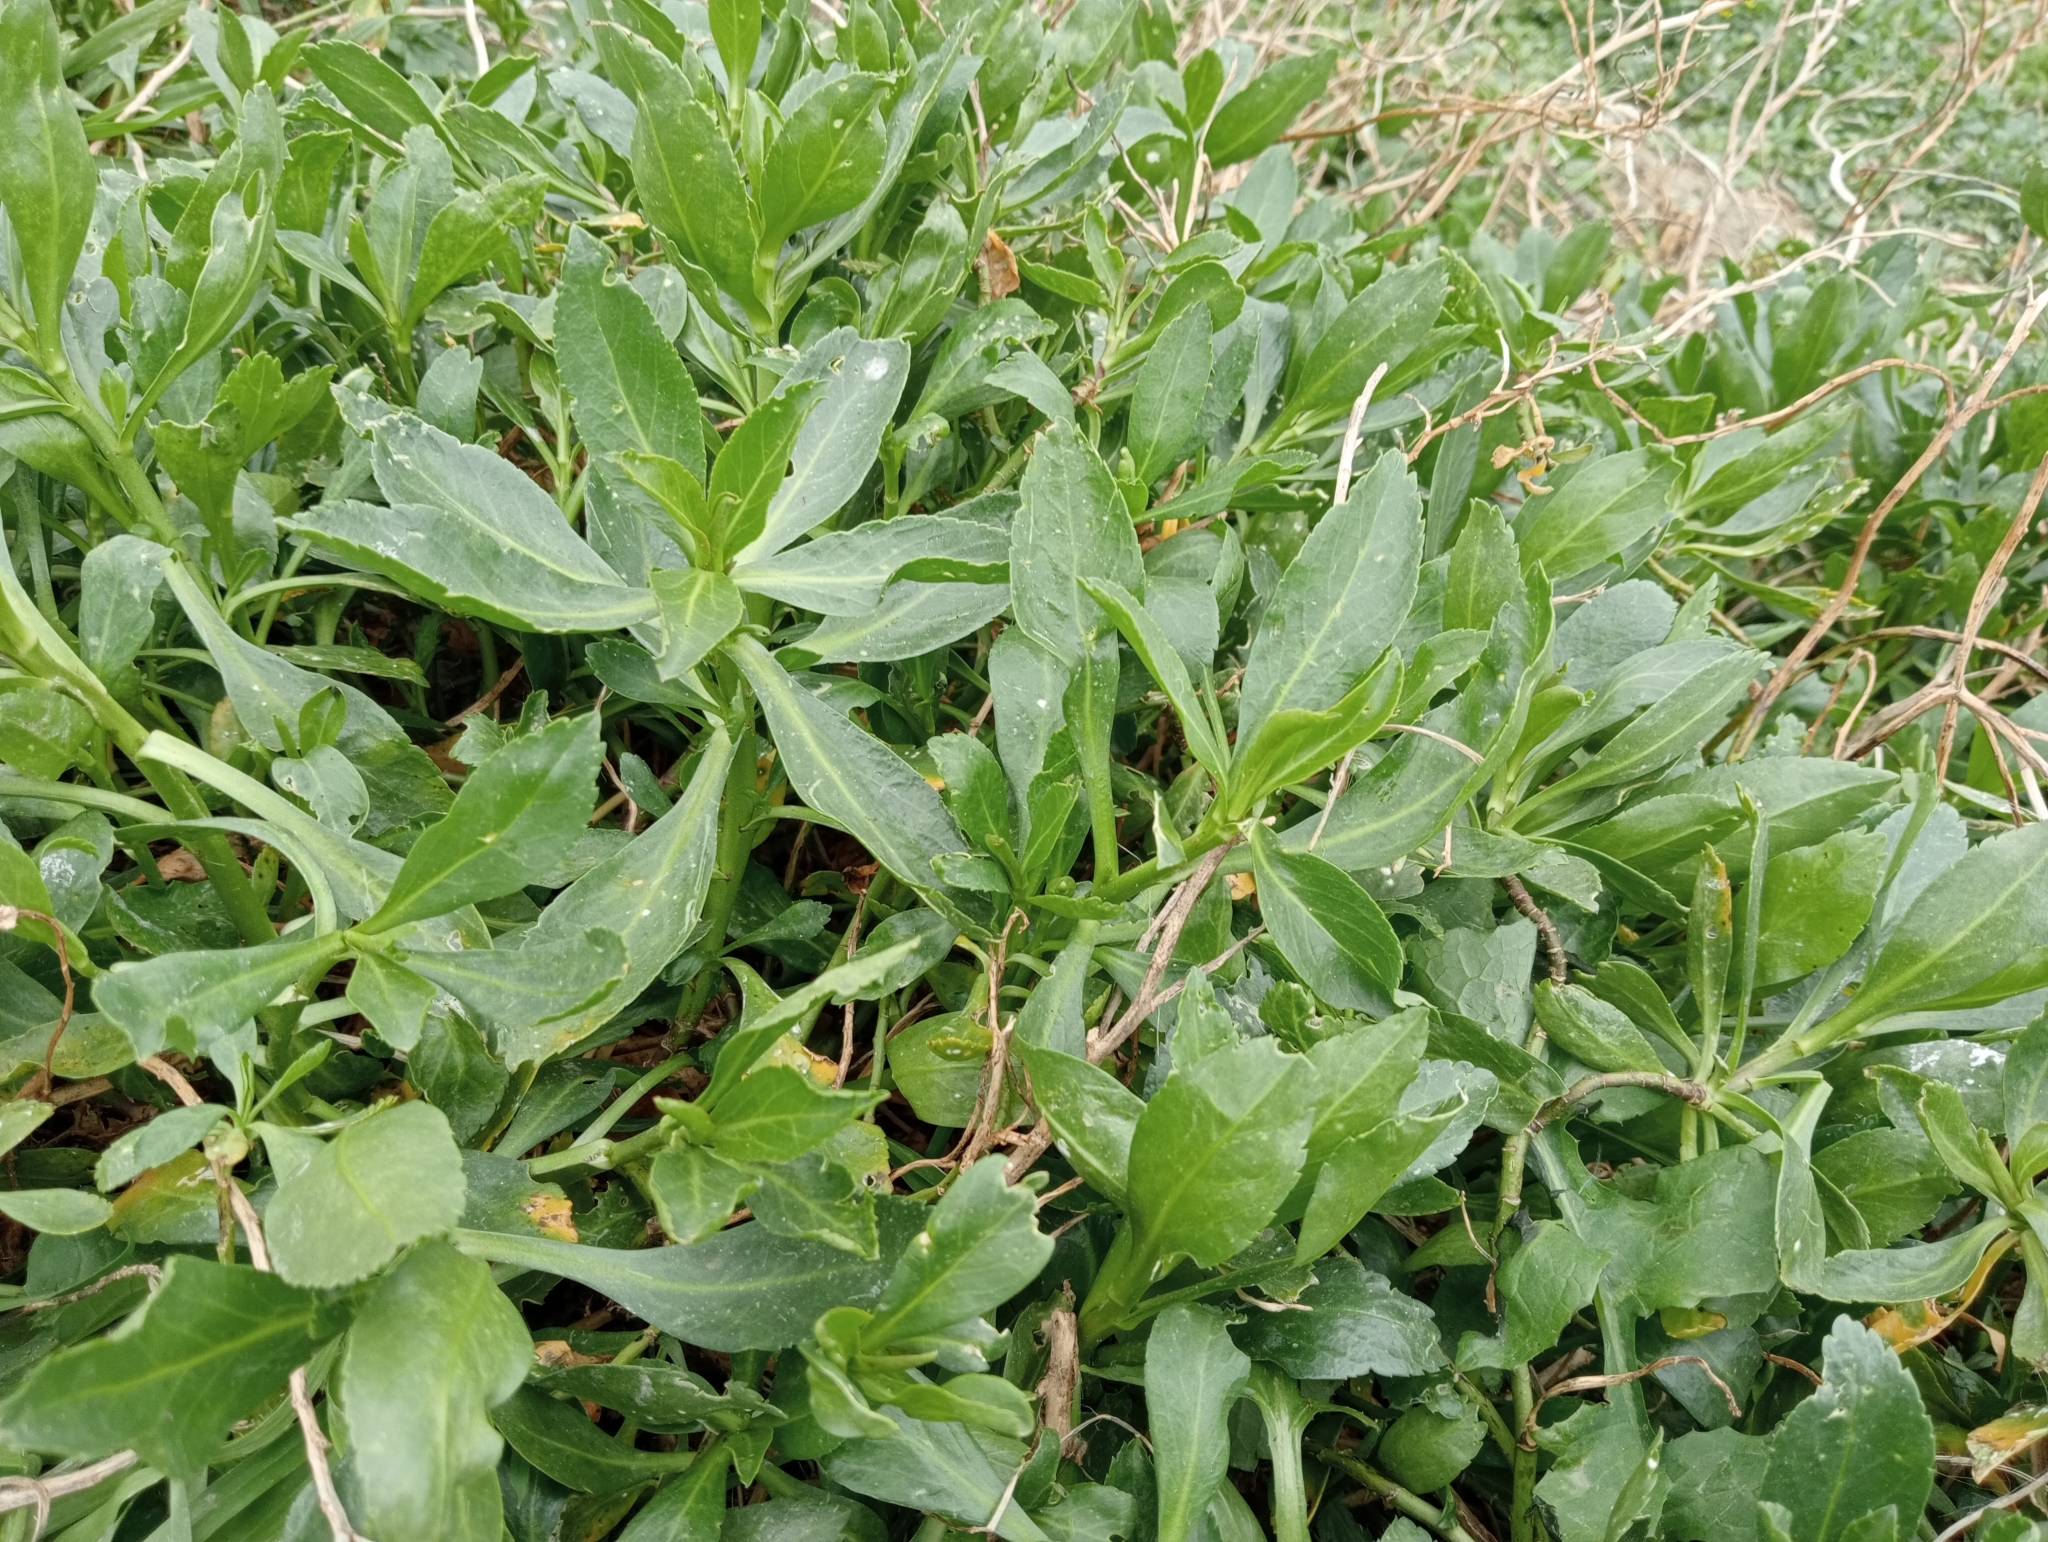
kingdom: Plantae
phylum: Tracheophyta
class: Magnoliopsida
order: Brassicales
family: Brassicaceae
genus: Lepidium
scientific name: Lepidium crassum
